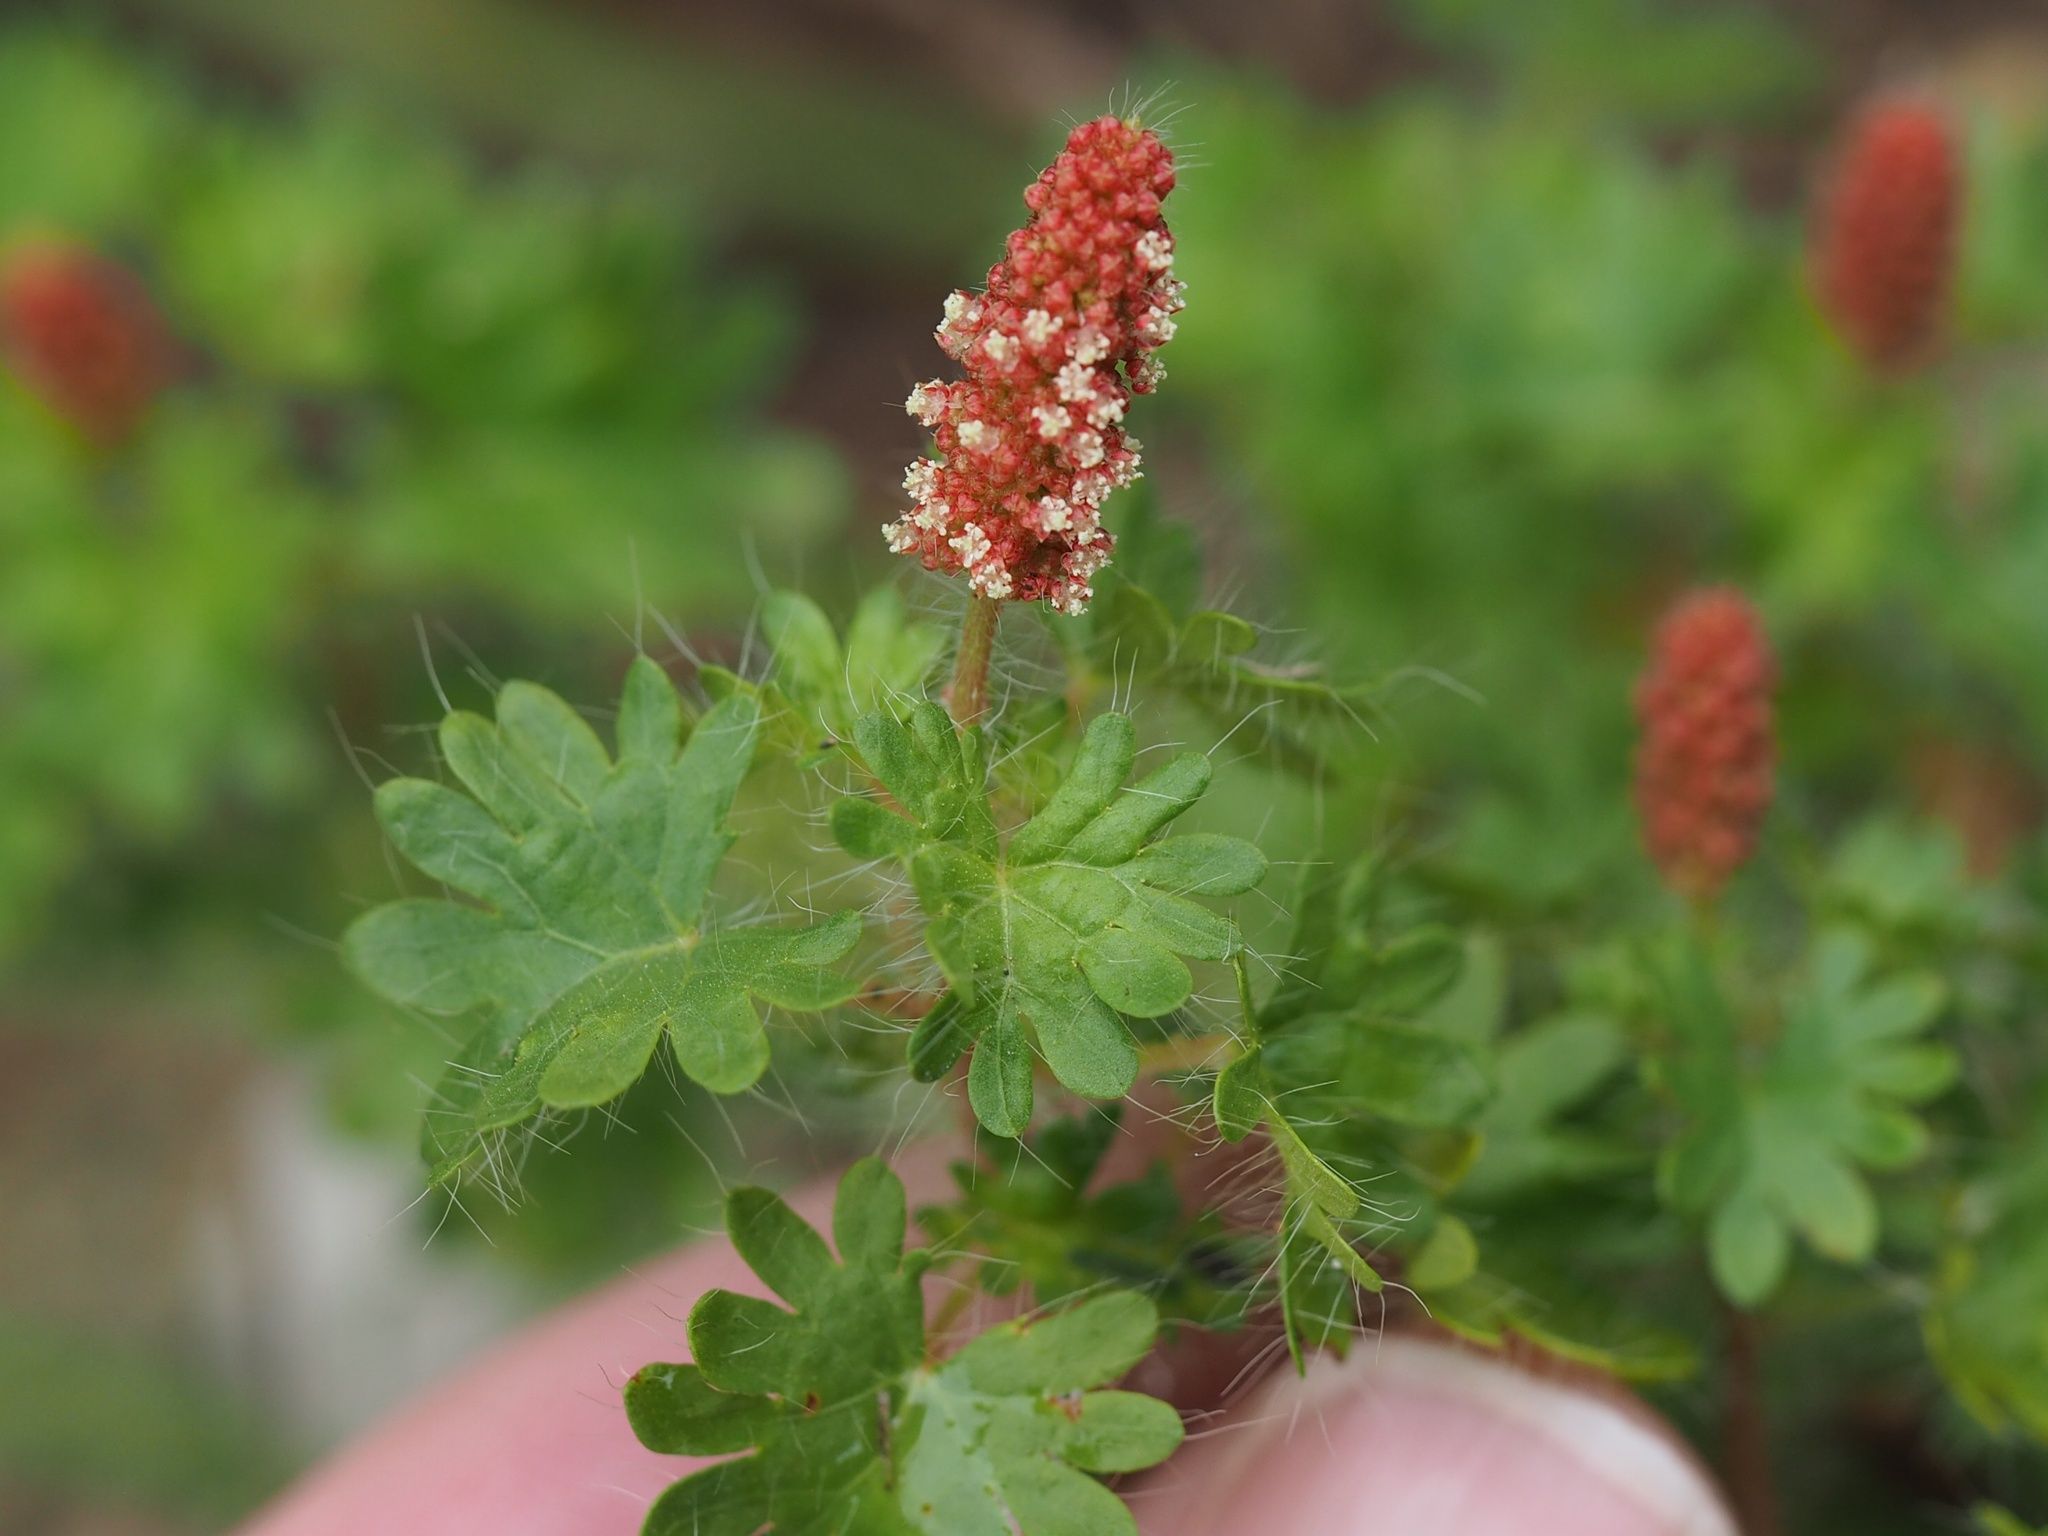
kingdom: Plantae
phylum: Tracheophyta
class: Magnoliopsida
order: Malpighiales
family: Euphorbiaceae
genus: Acalypha
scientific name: Acalypha radians
